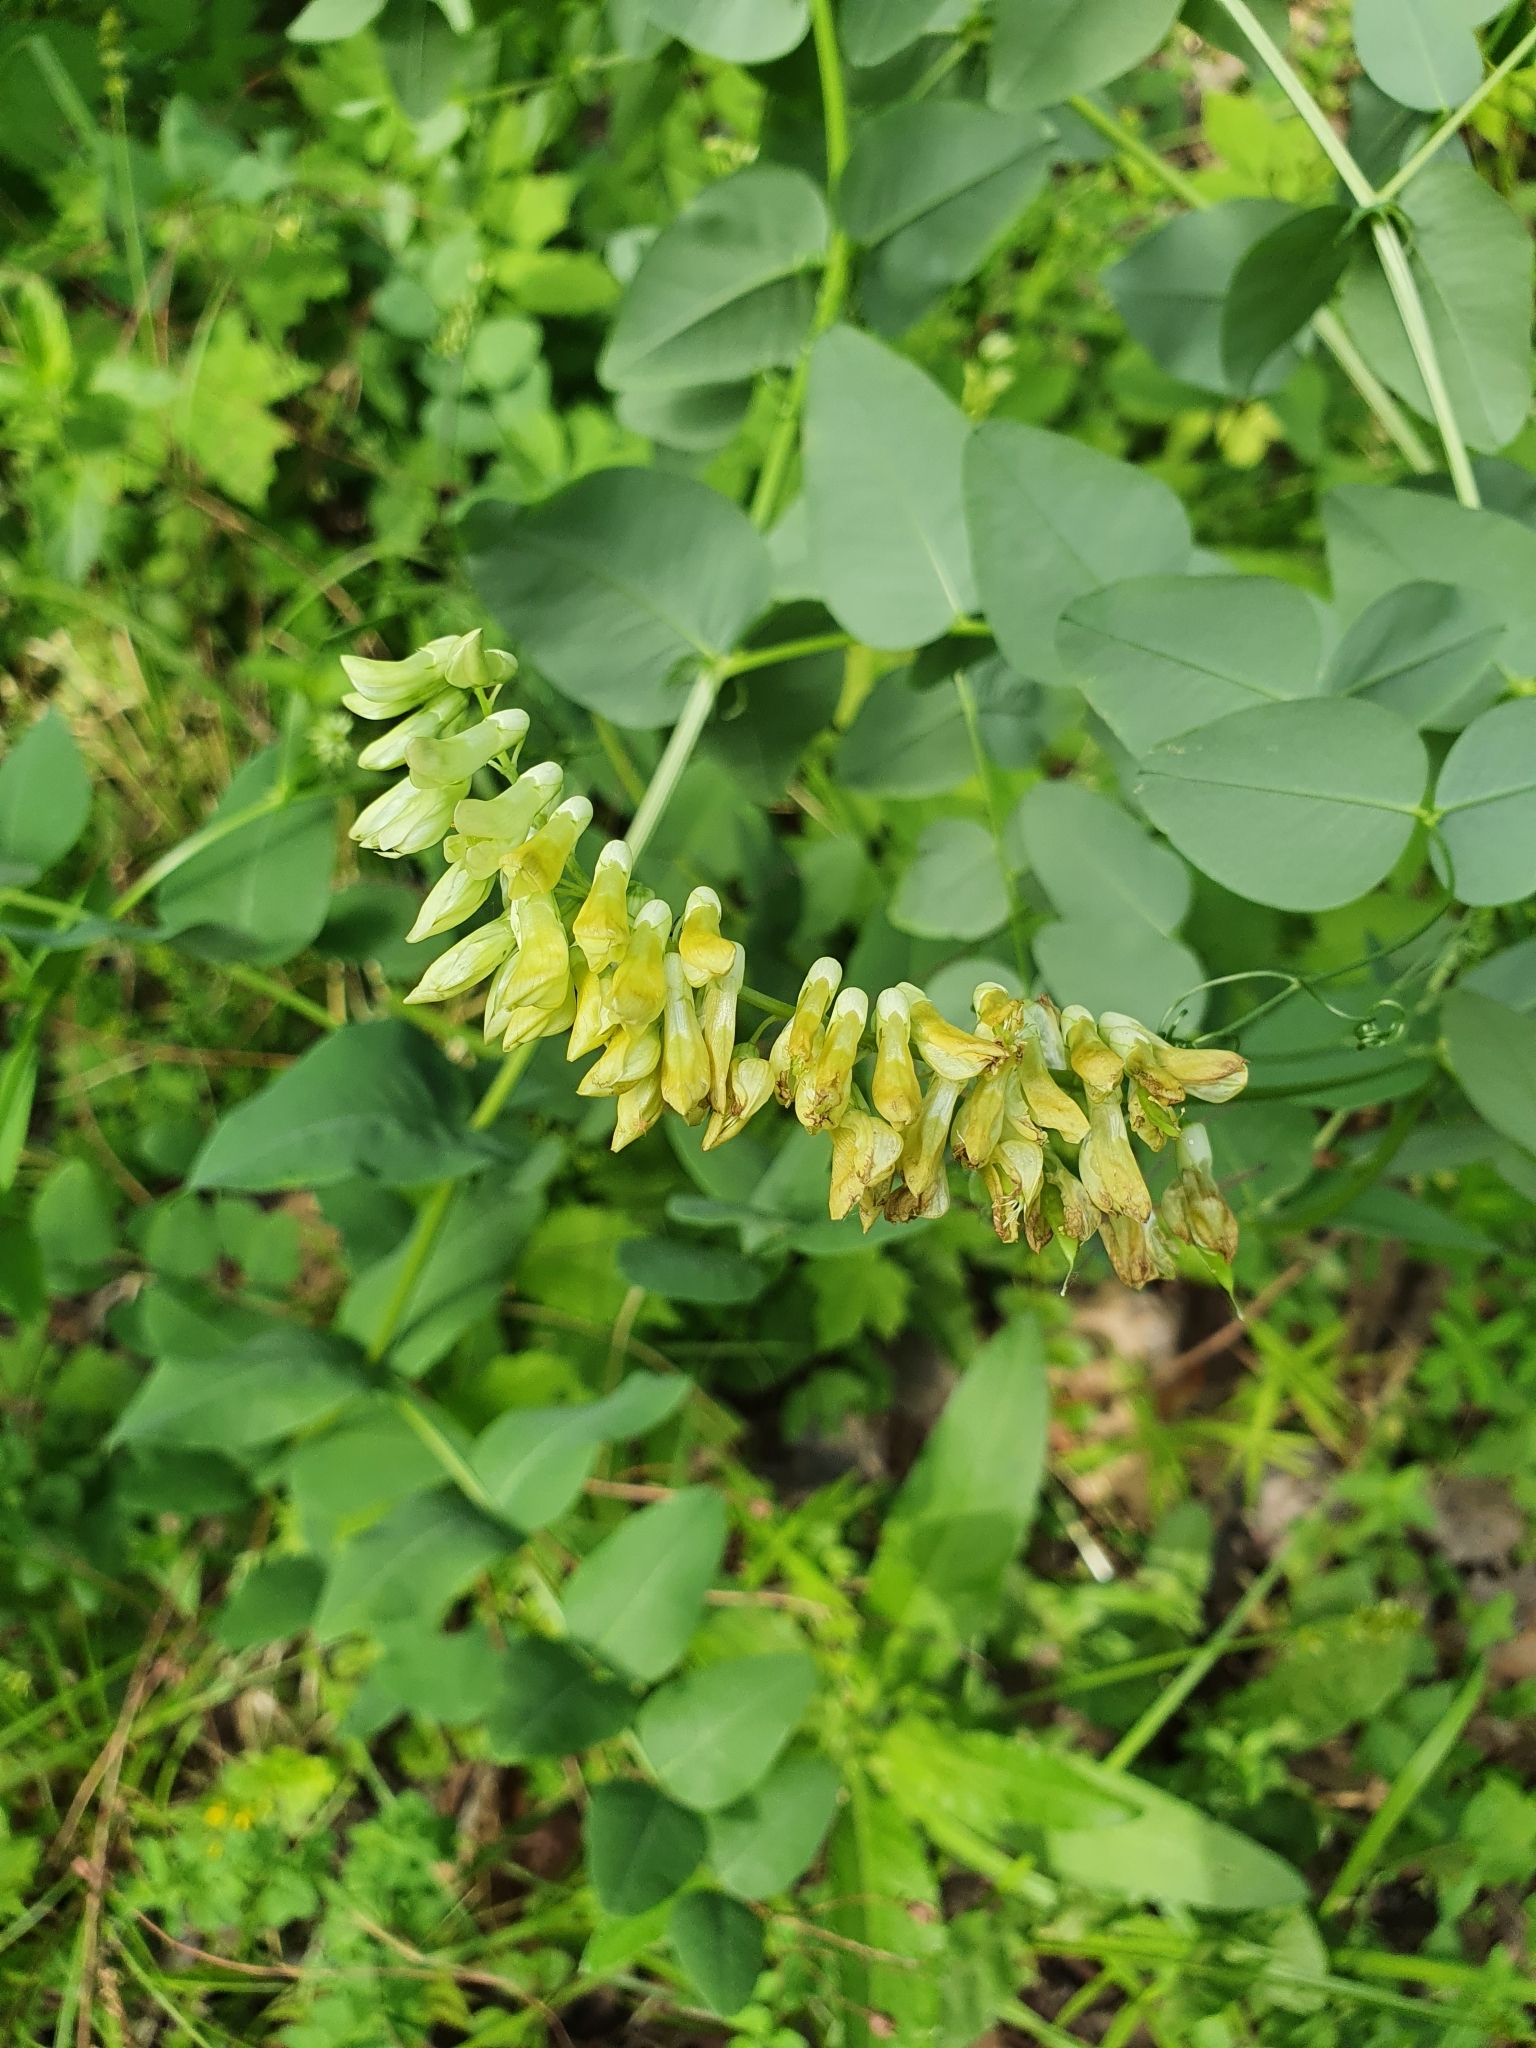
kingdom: Plantae
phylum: Tracheophyta
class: Magnoliopsida
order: Fabales
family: Fabaceae
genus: Vicia
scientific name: Vicia pisiformis
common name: Pale-flower vetch
